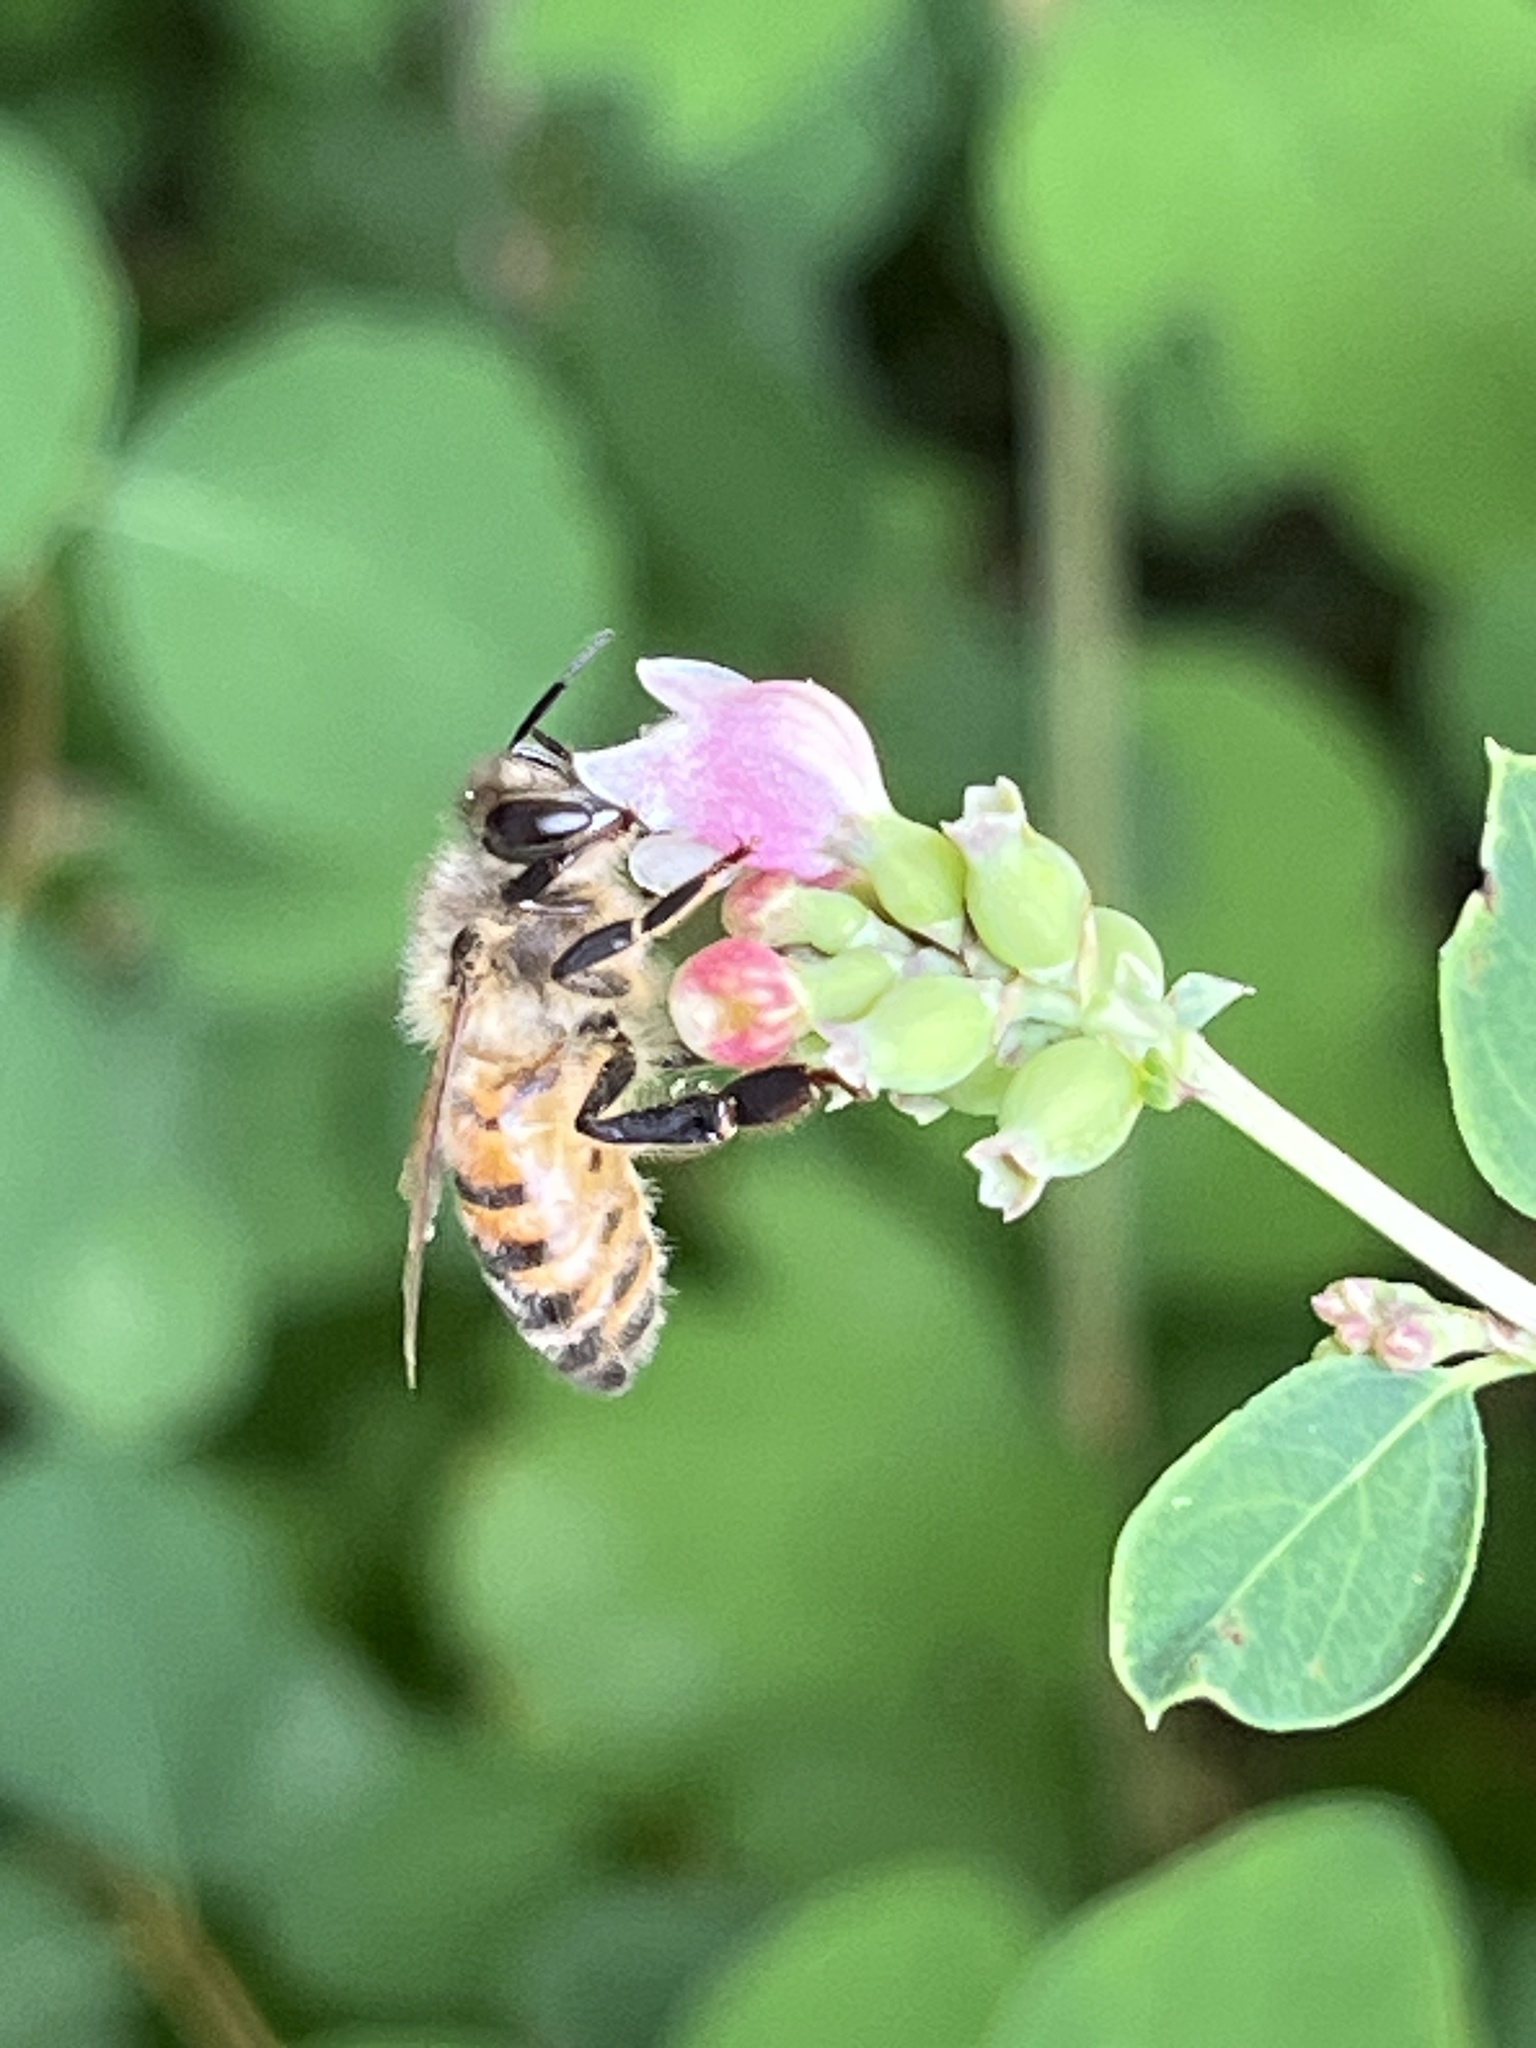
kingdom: Animalia
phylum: Arthropoda
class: Insecta
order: Hymenoptera
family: Apidae
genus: Apis
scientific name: Apis mellifera
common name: Honey bee
